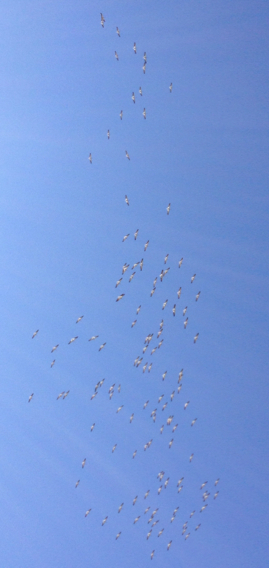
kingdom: Animalia
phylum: Chordata
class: Aves
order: Pelecaniformes
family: Pelecanidae
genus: Pelecanus
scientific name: Pelecanus erythrorhynchos
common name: American white pelican
